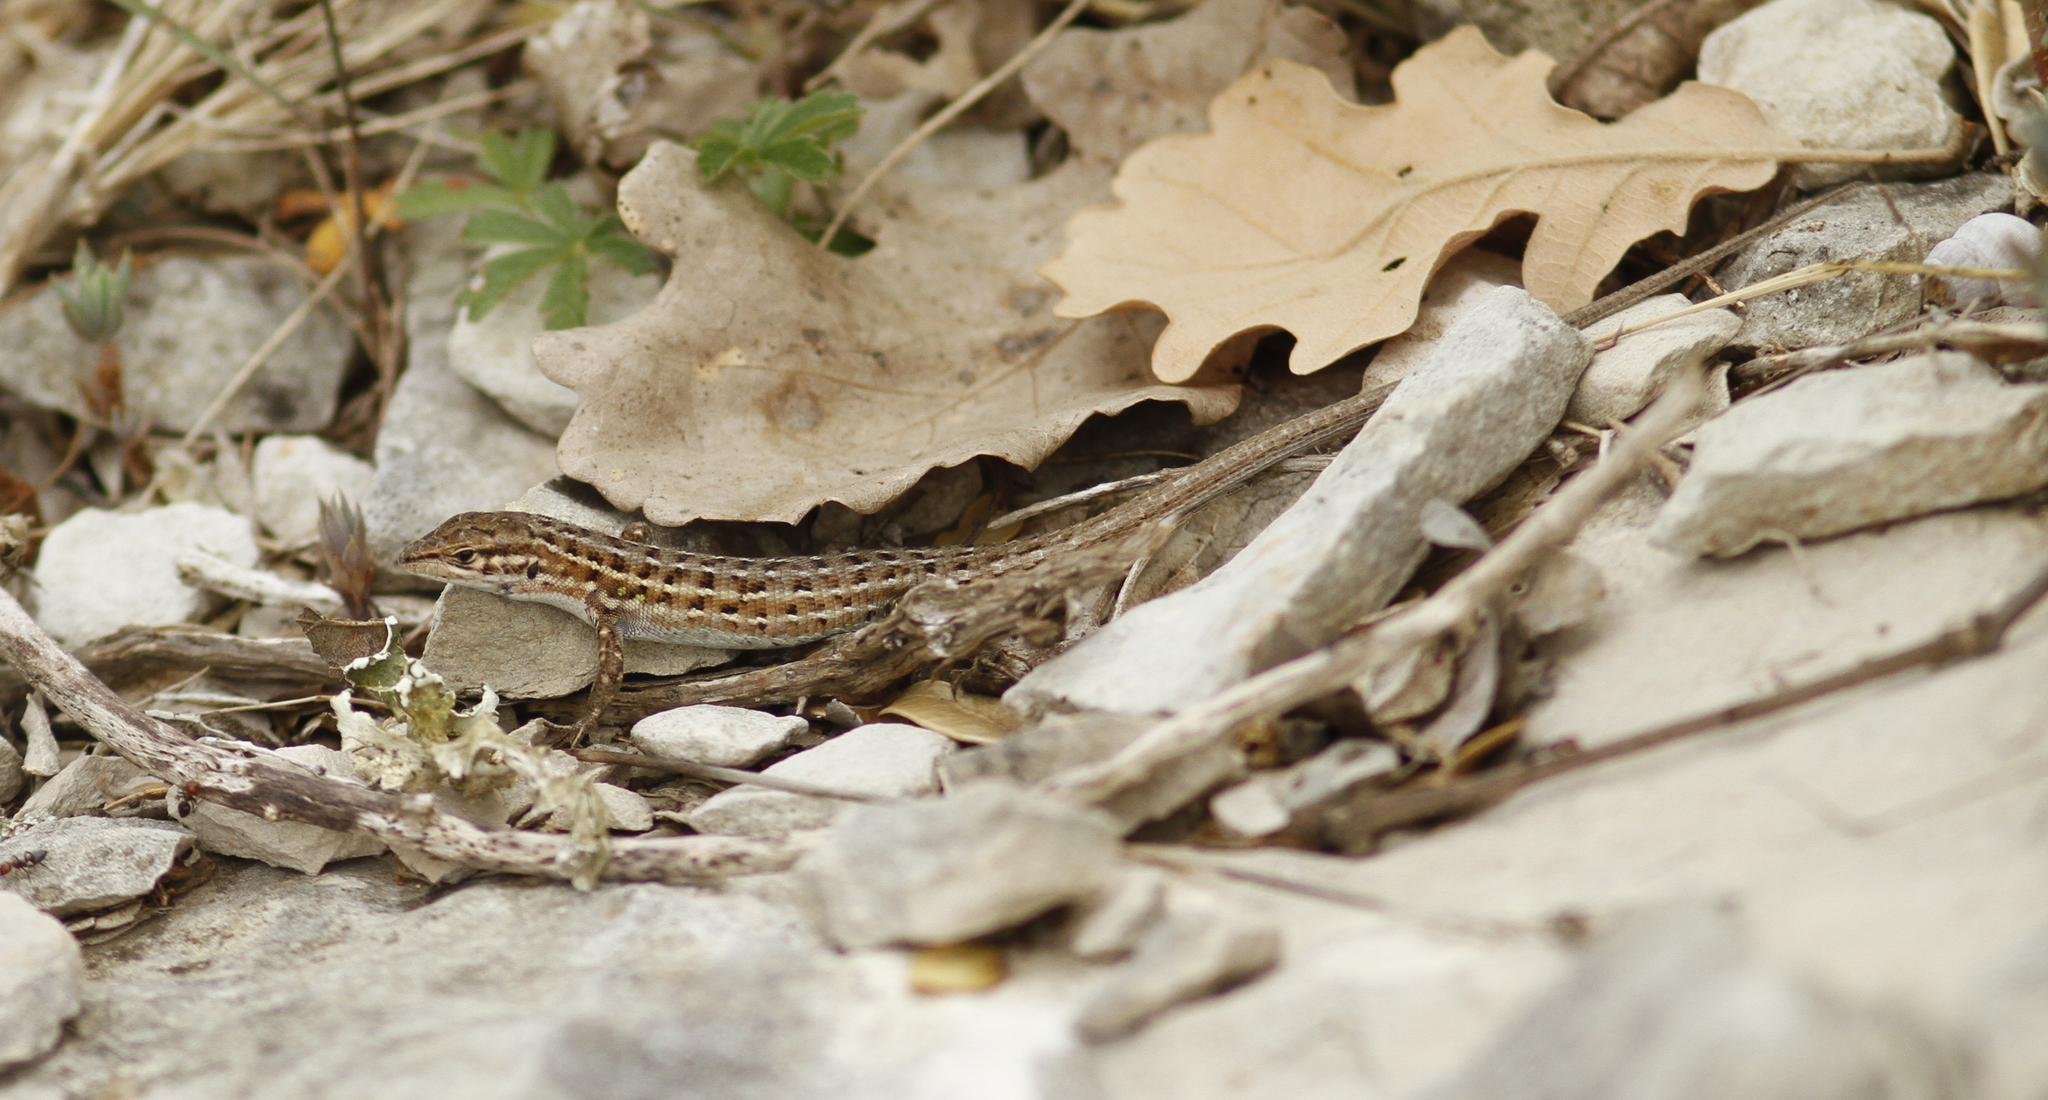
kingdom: Animalia
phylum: Chordata
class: Squamata
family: Lacertidae
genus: Psammodromus
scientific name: Psammodromus edwarsianus
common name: East iberian psammodromus
